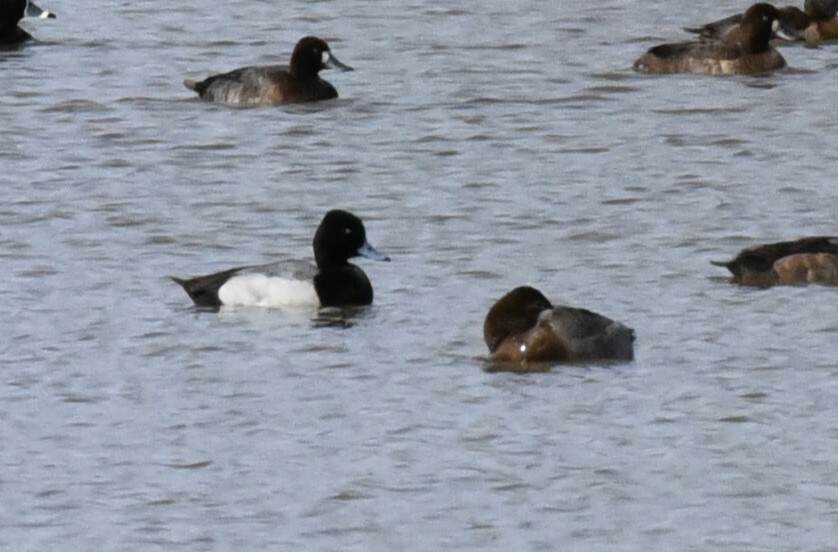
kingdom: Animalia
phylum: Chordata
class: Aves
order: Anseriformes
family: Anatidae
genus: Aythya
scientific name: Aythya affinis
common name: Lesser scaup
